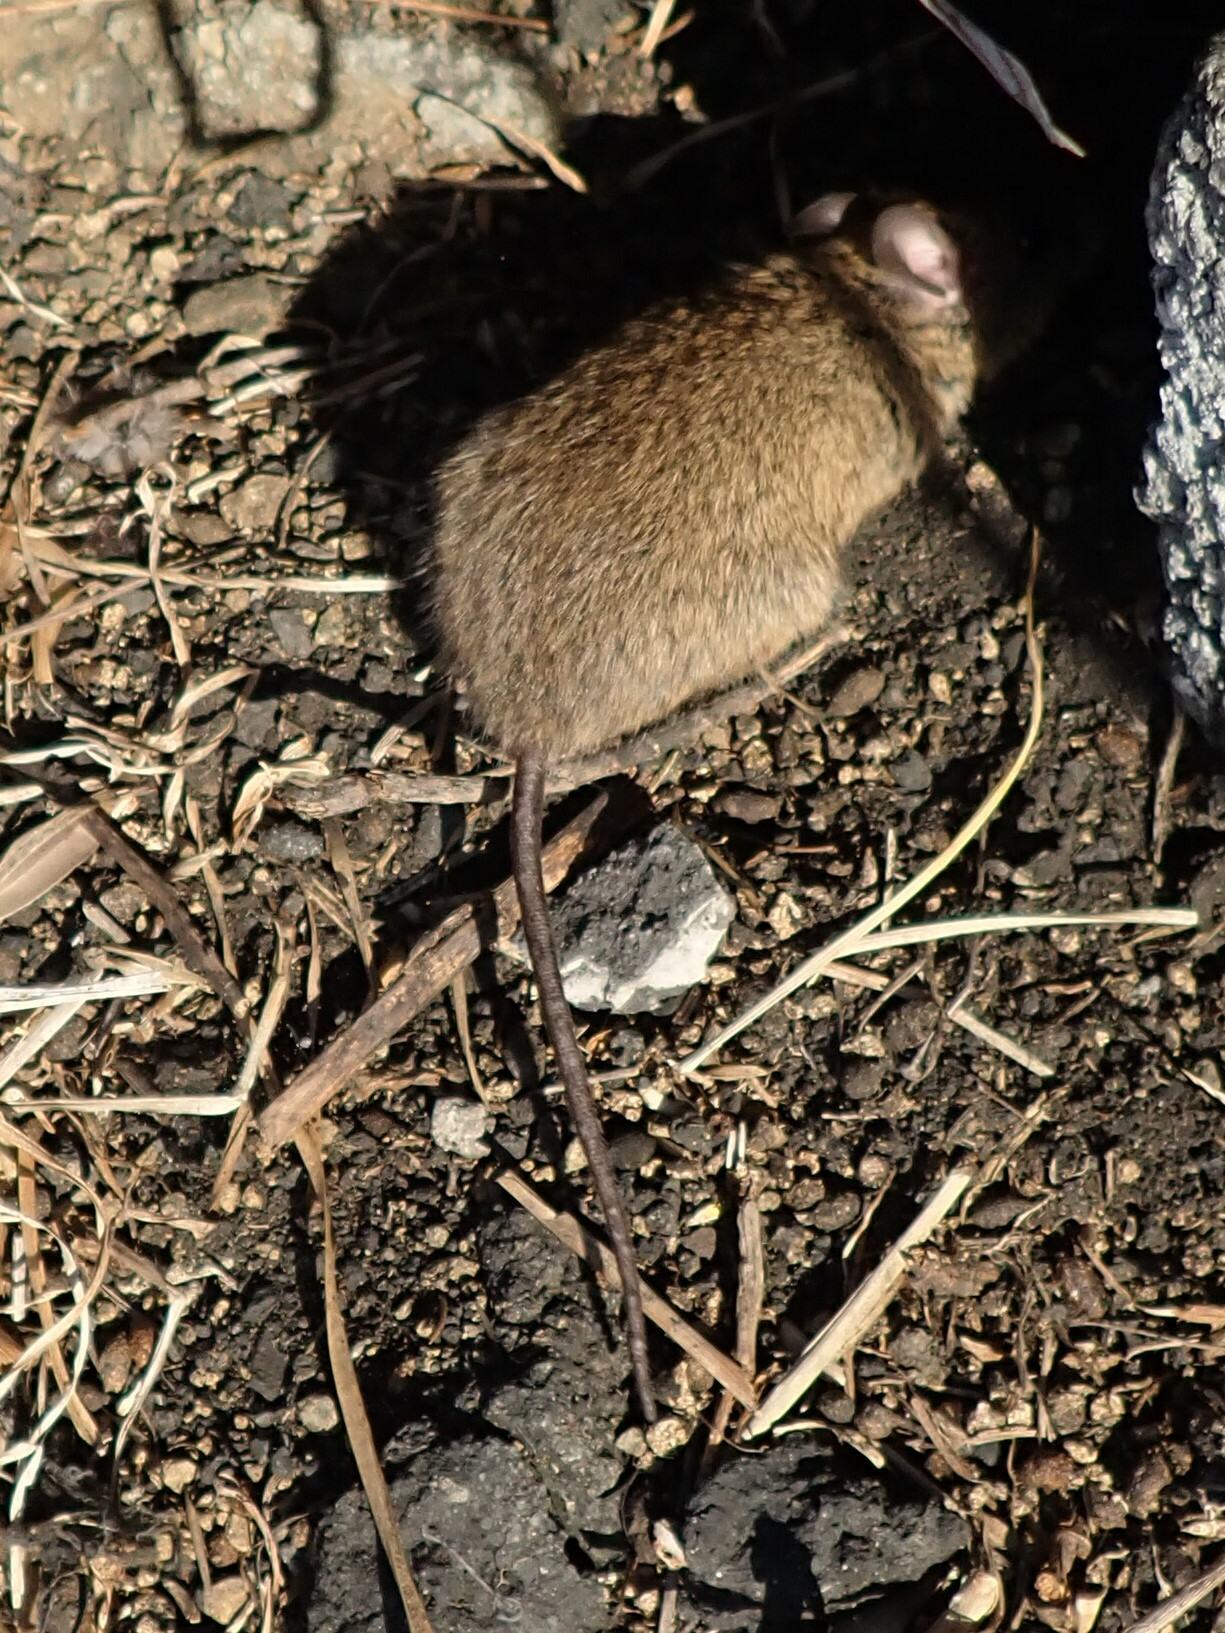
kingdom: Animalia
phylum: Chordata
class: Mammalia
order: Rodentia
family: Muridae
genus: Mastomys
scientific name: Mastomys coucha
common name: Southern african mastomys
